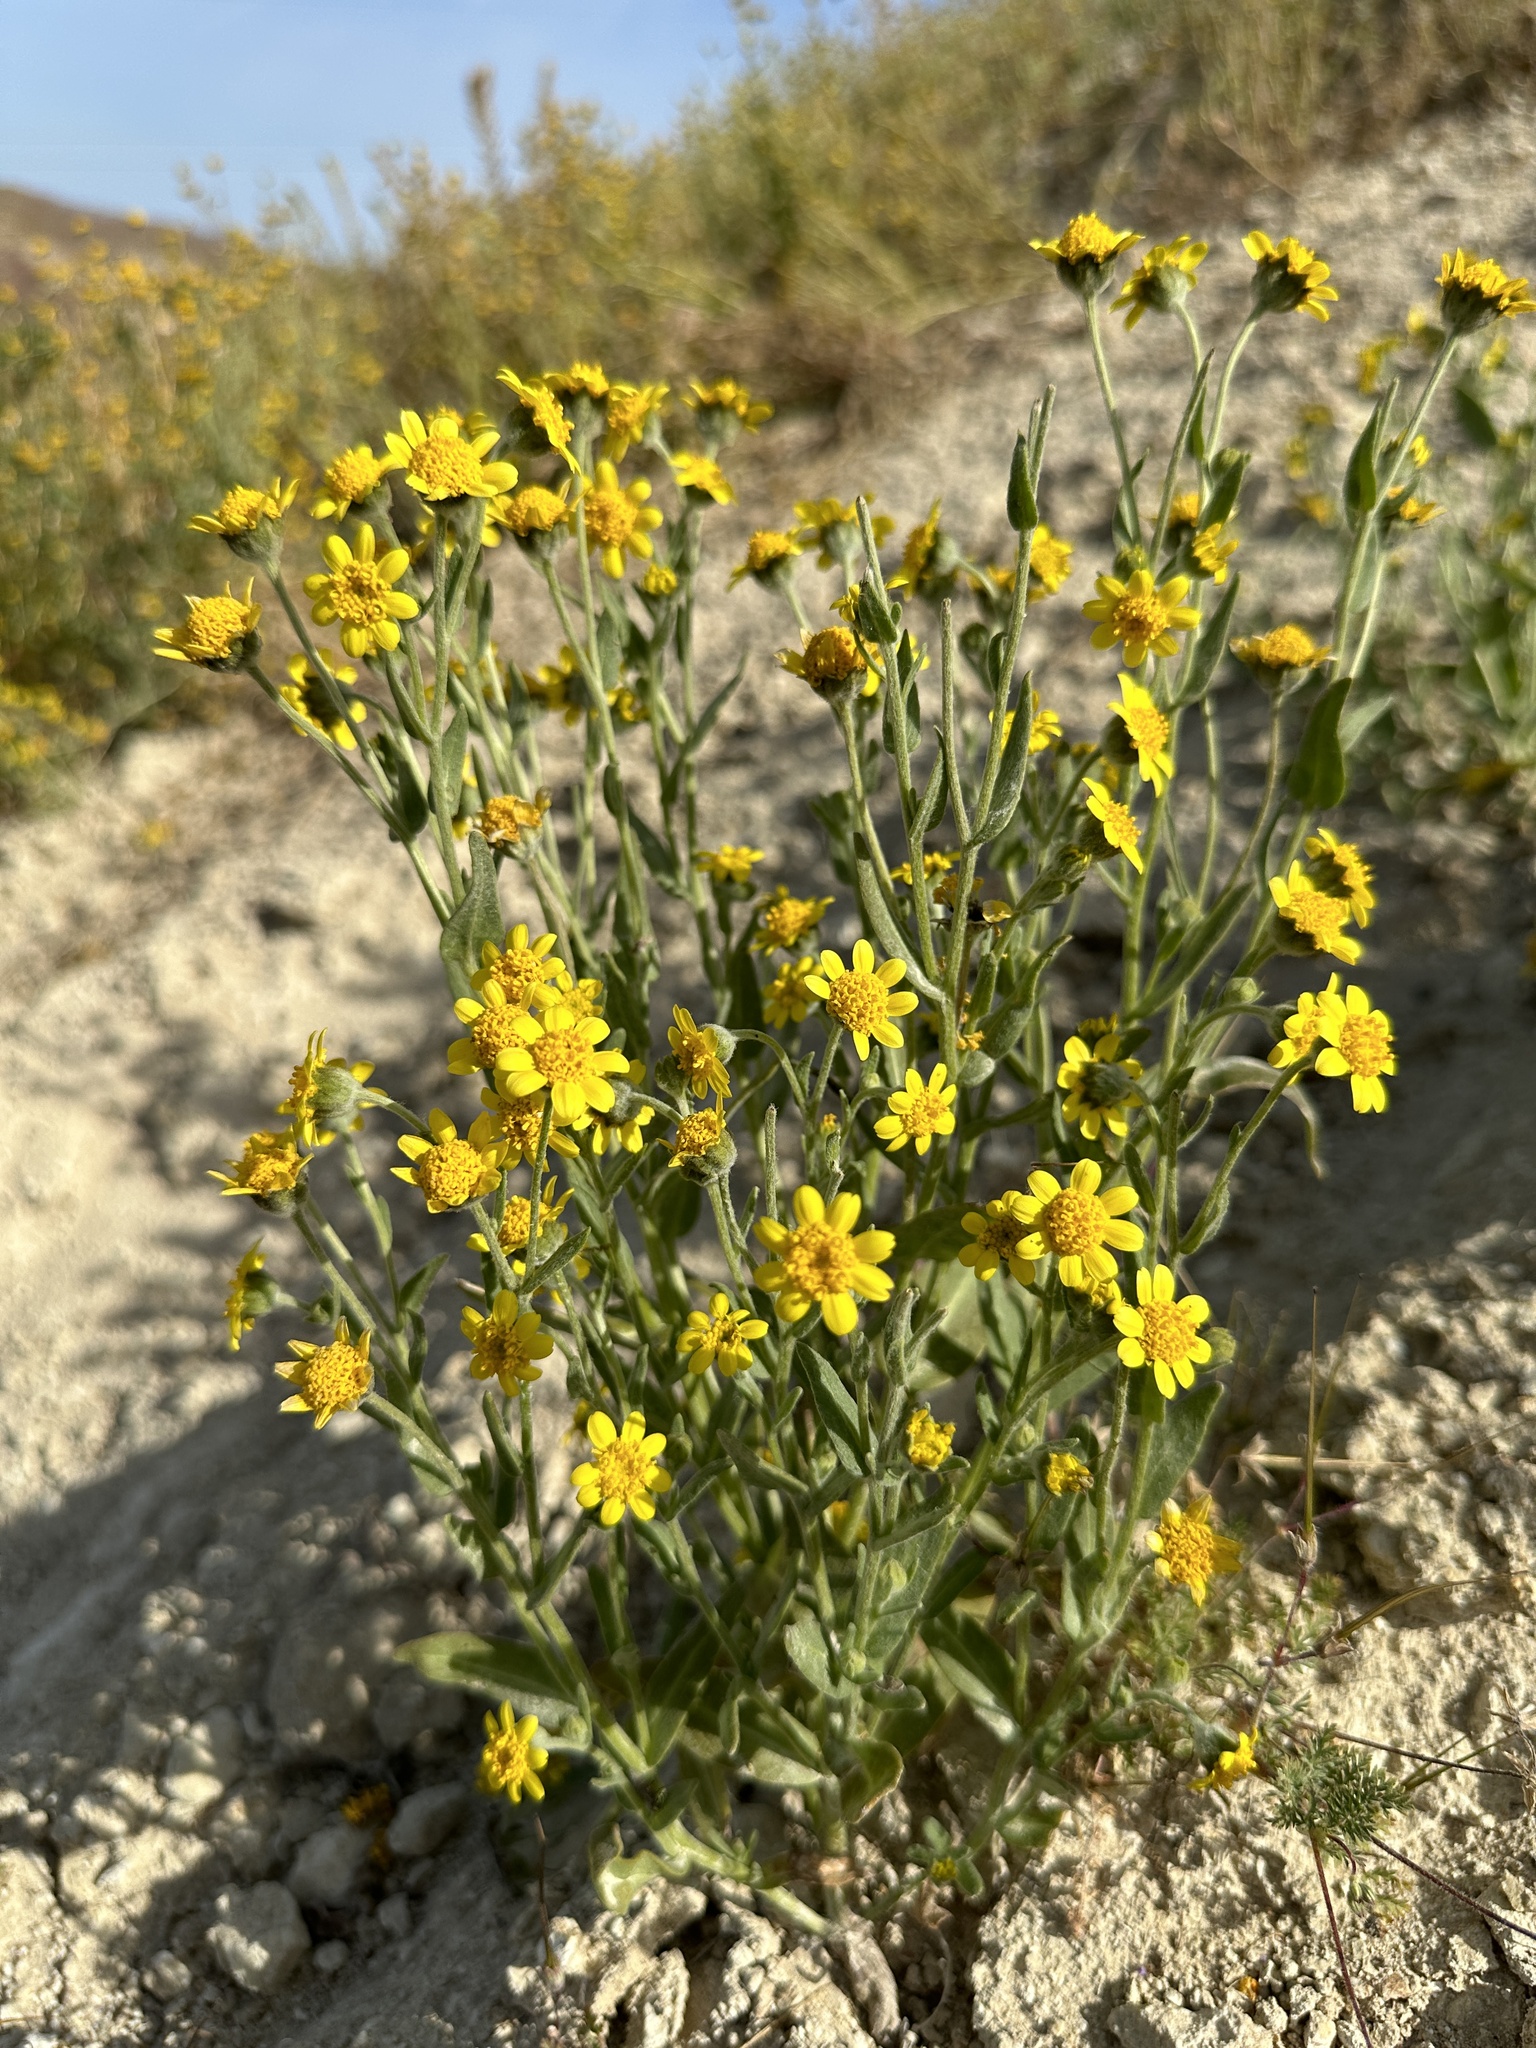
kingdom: Plantae
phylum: Tracheophyta
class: Magnoliopsida
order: Asterales
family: Asteraceae
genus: Monolopia
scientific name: Monolopia stricta
